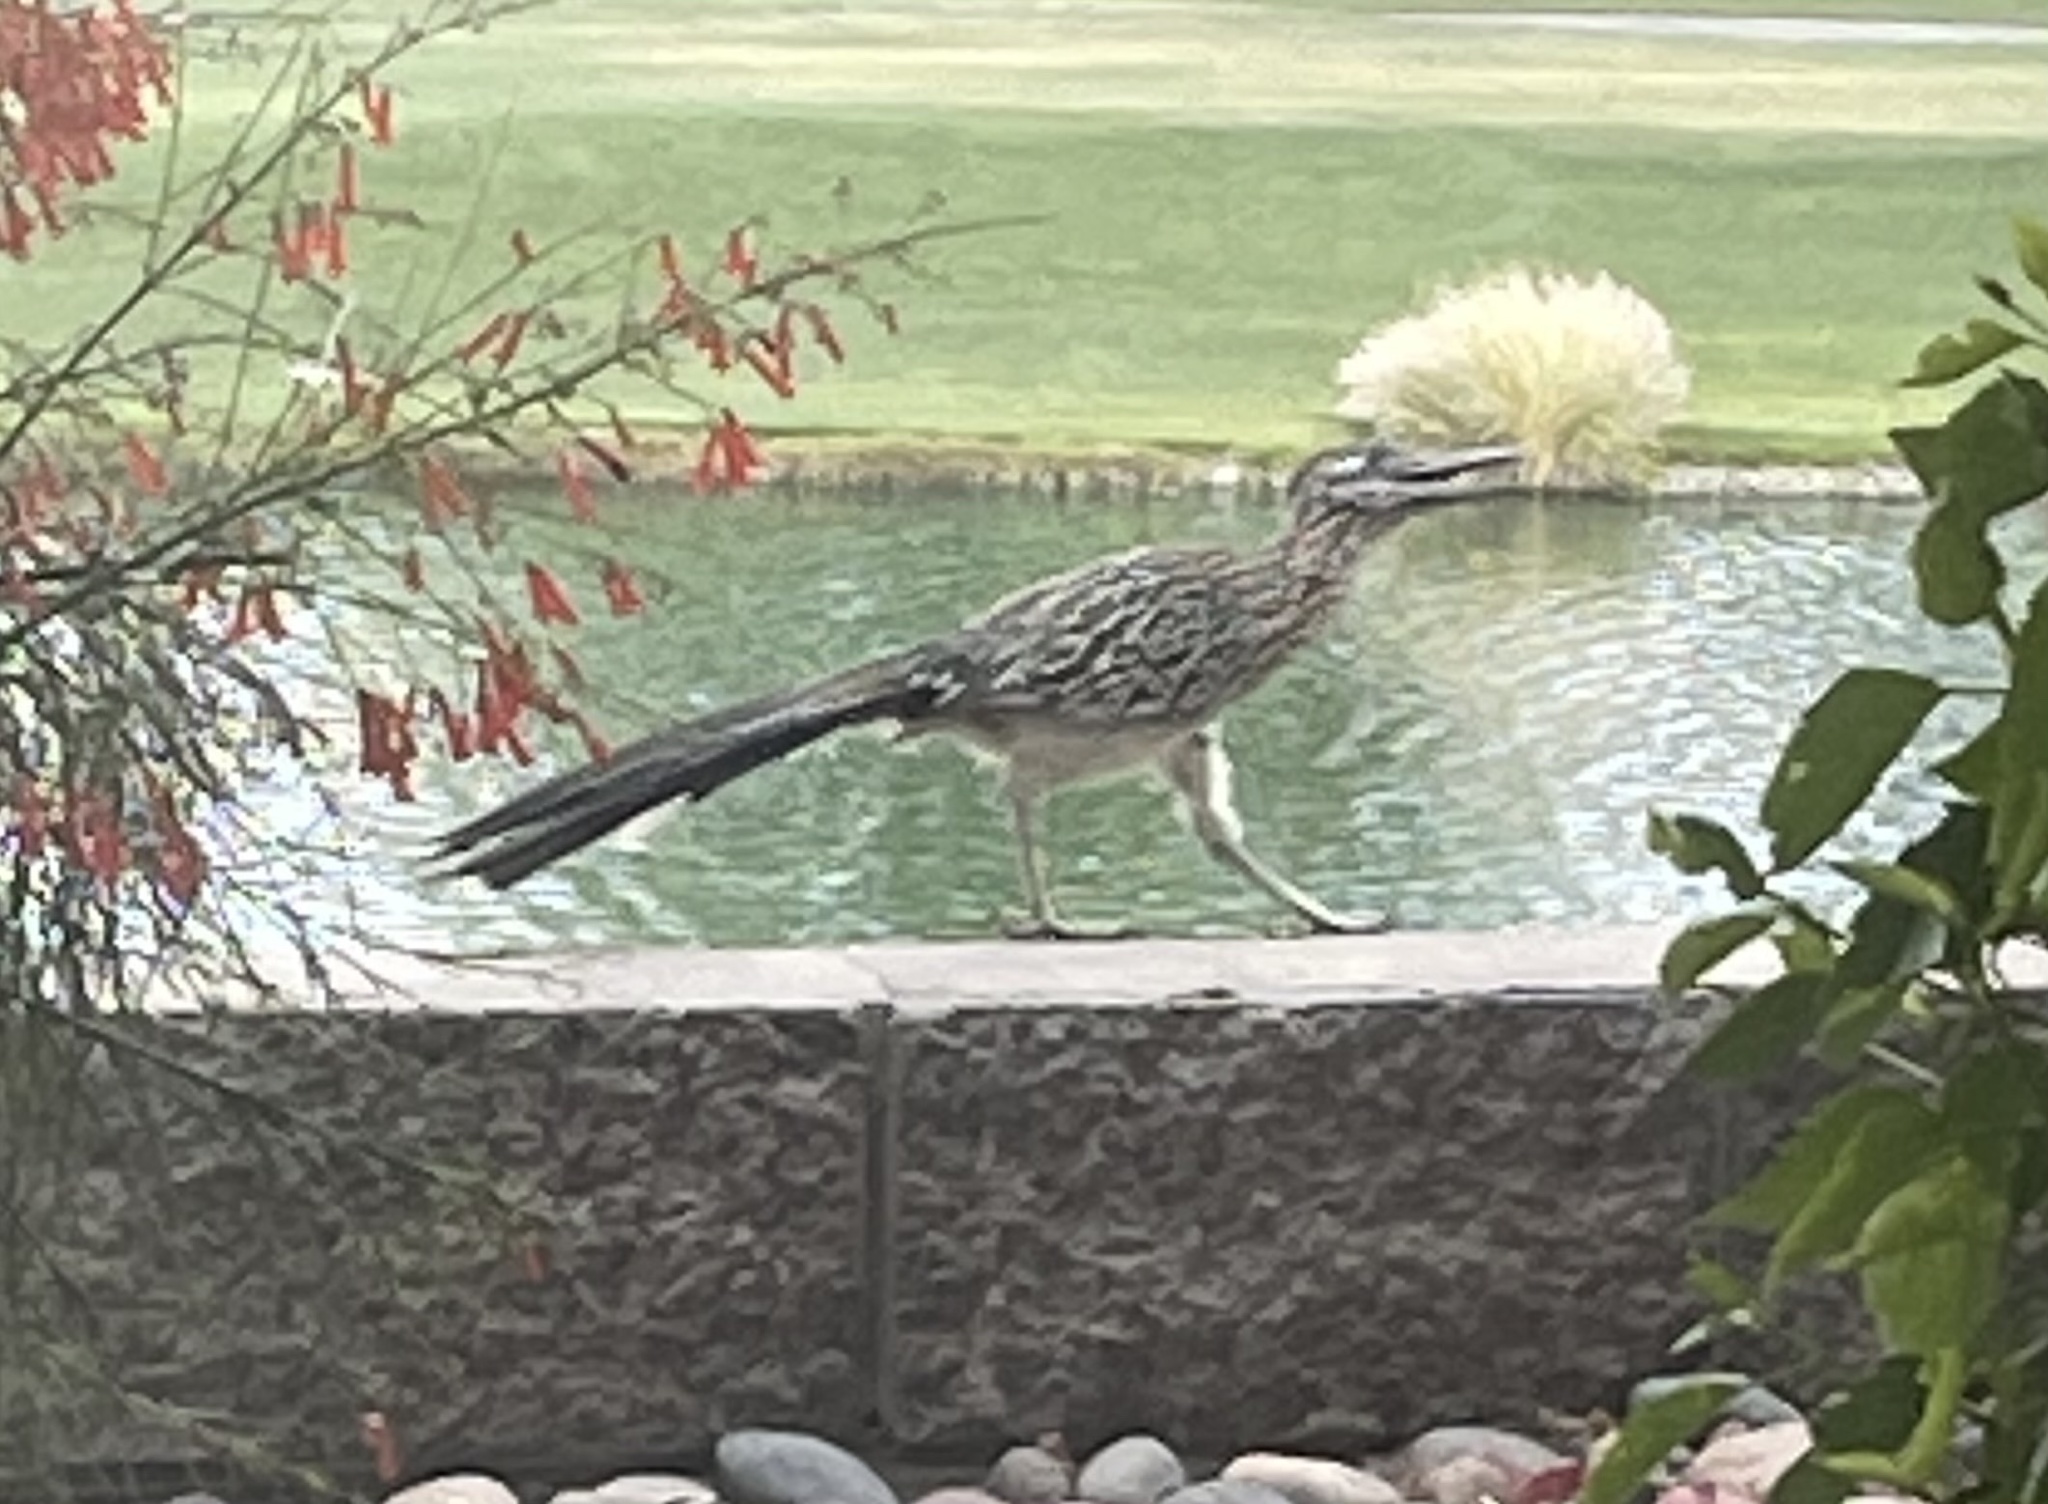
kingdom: Animalia
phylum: Chordata
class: Aves
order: Cuculiformes
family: Cuculidae
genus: Geococcyx
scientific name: Geococcyx californianus
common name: Greater roadrunner
